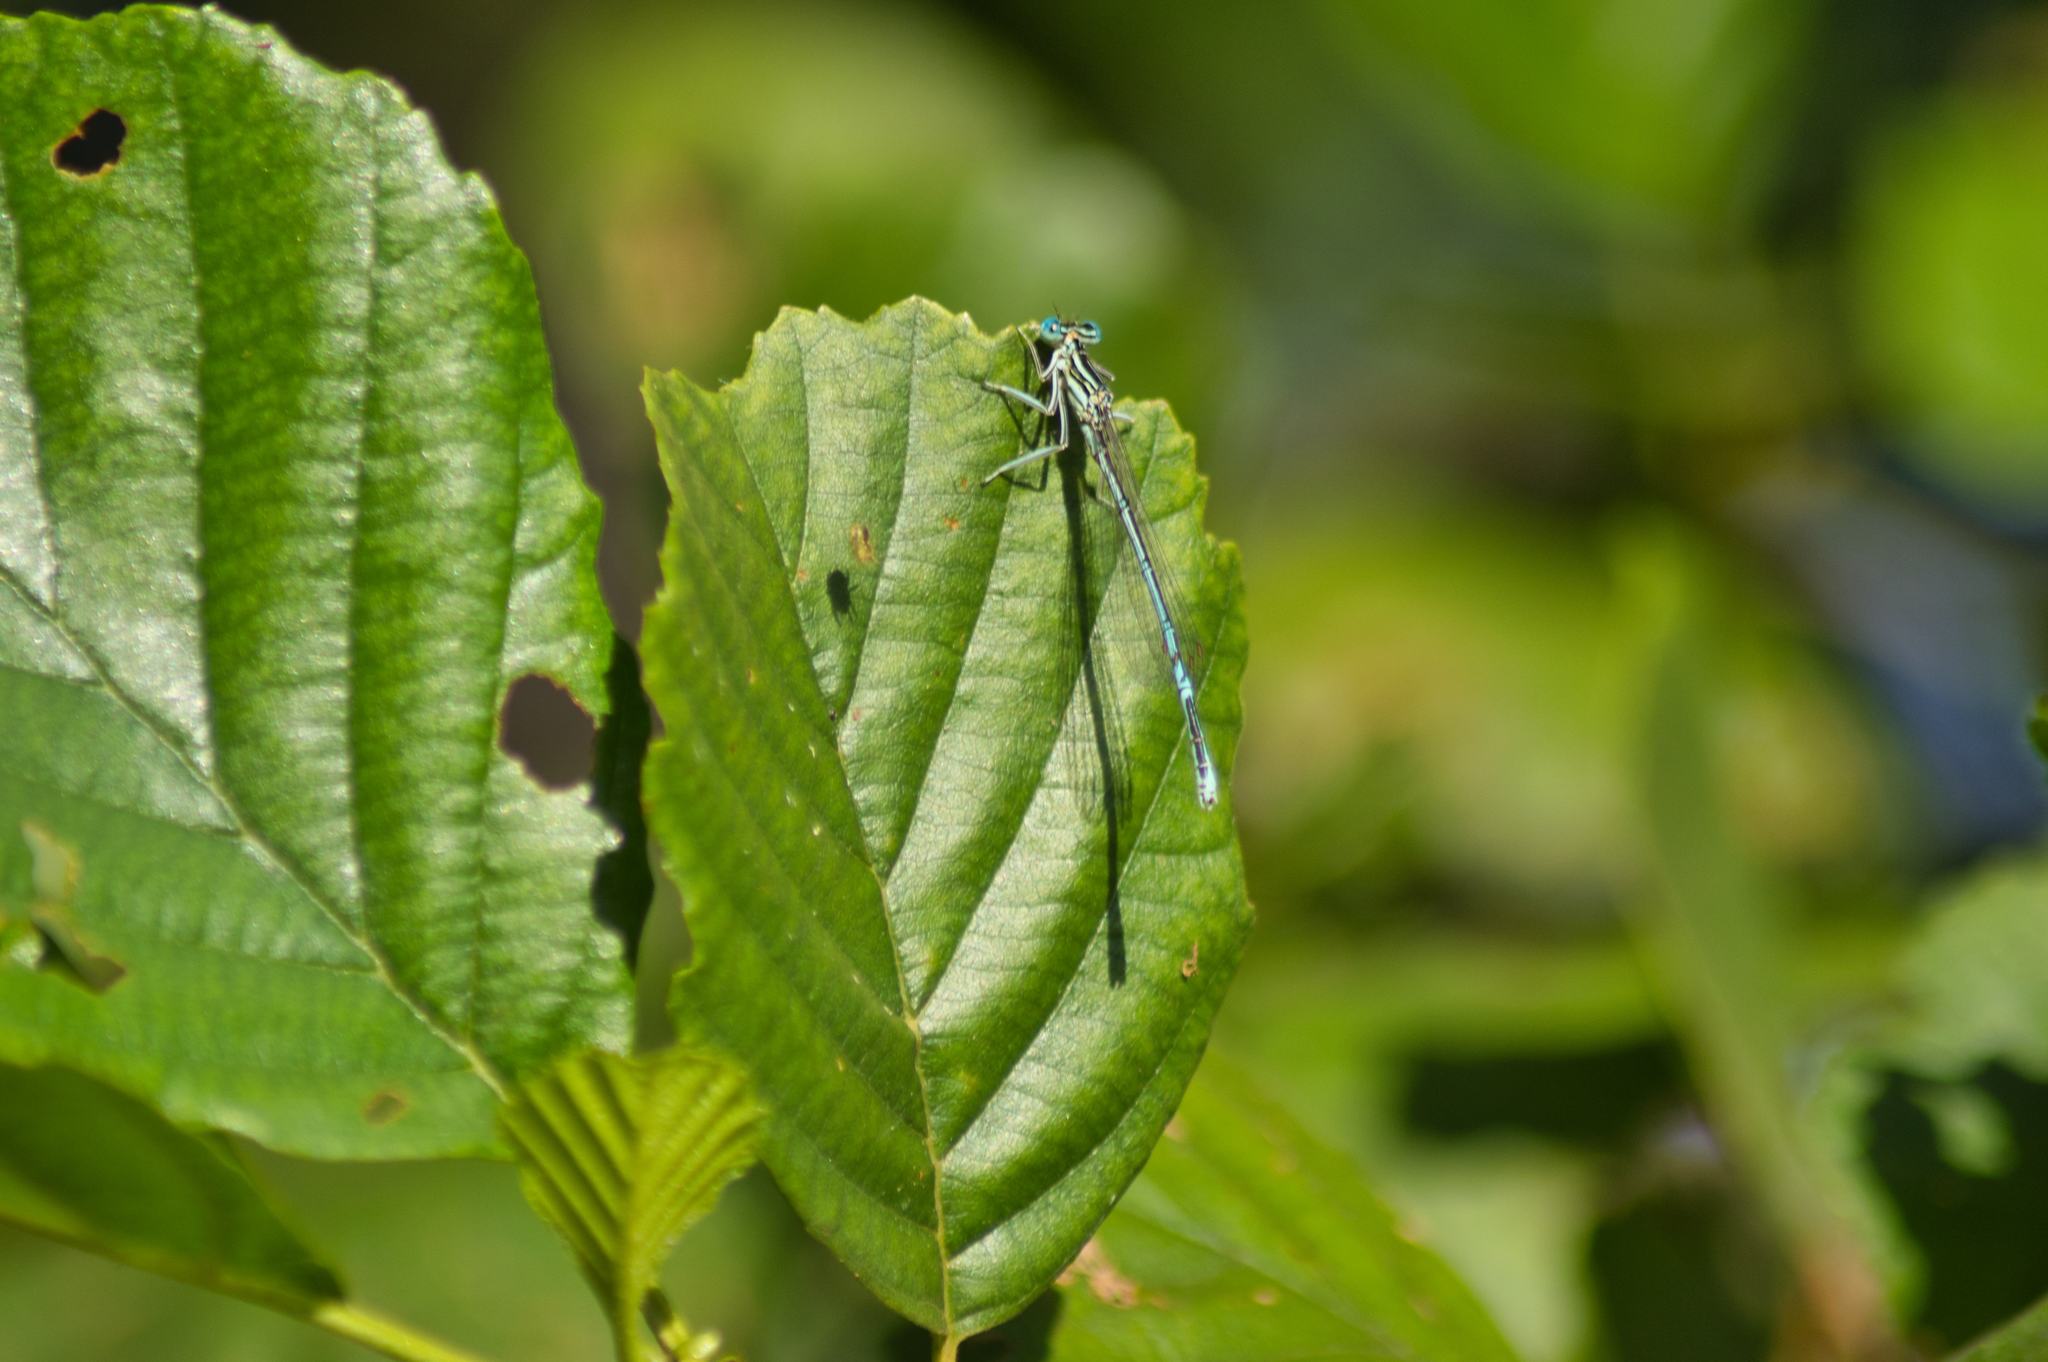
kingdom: Animalia
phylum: Arthropoda
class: Insecta
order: Odonata
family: Platycnemididae
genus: Platycnemis
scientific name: Platycnemis pennipes
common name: White-legged damselfly
